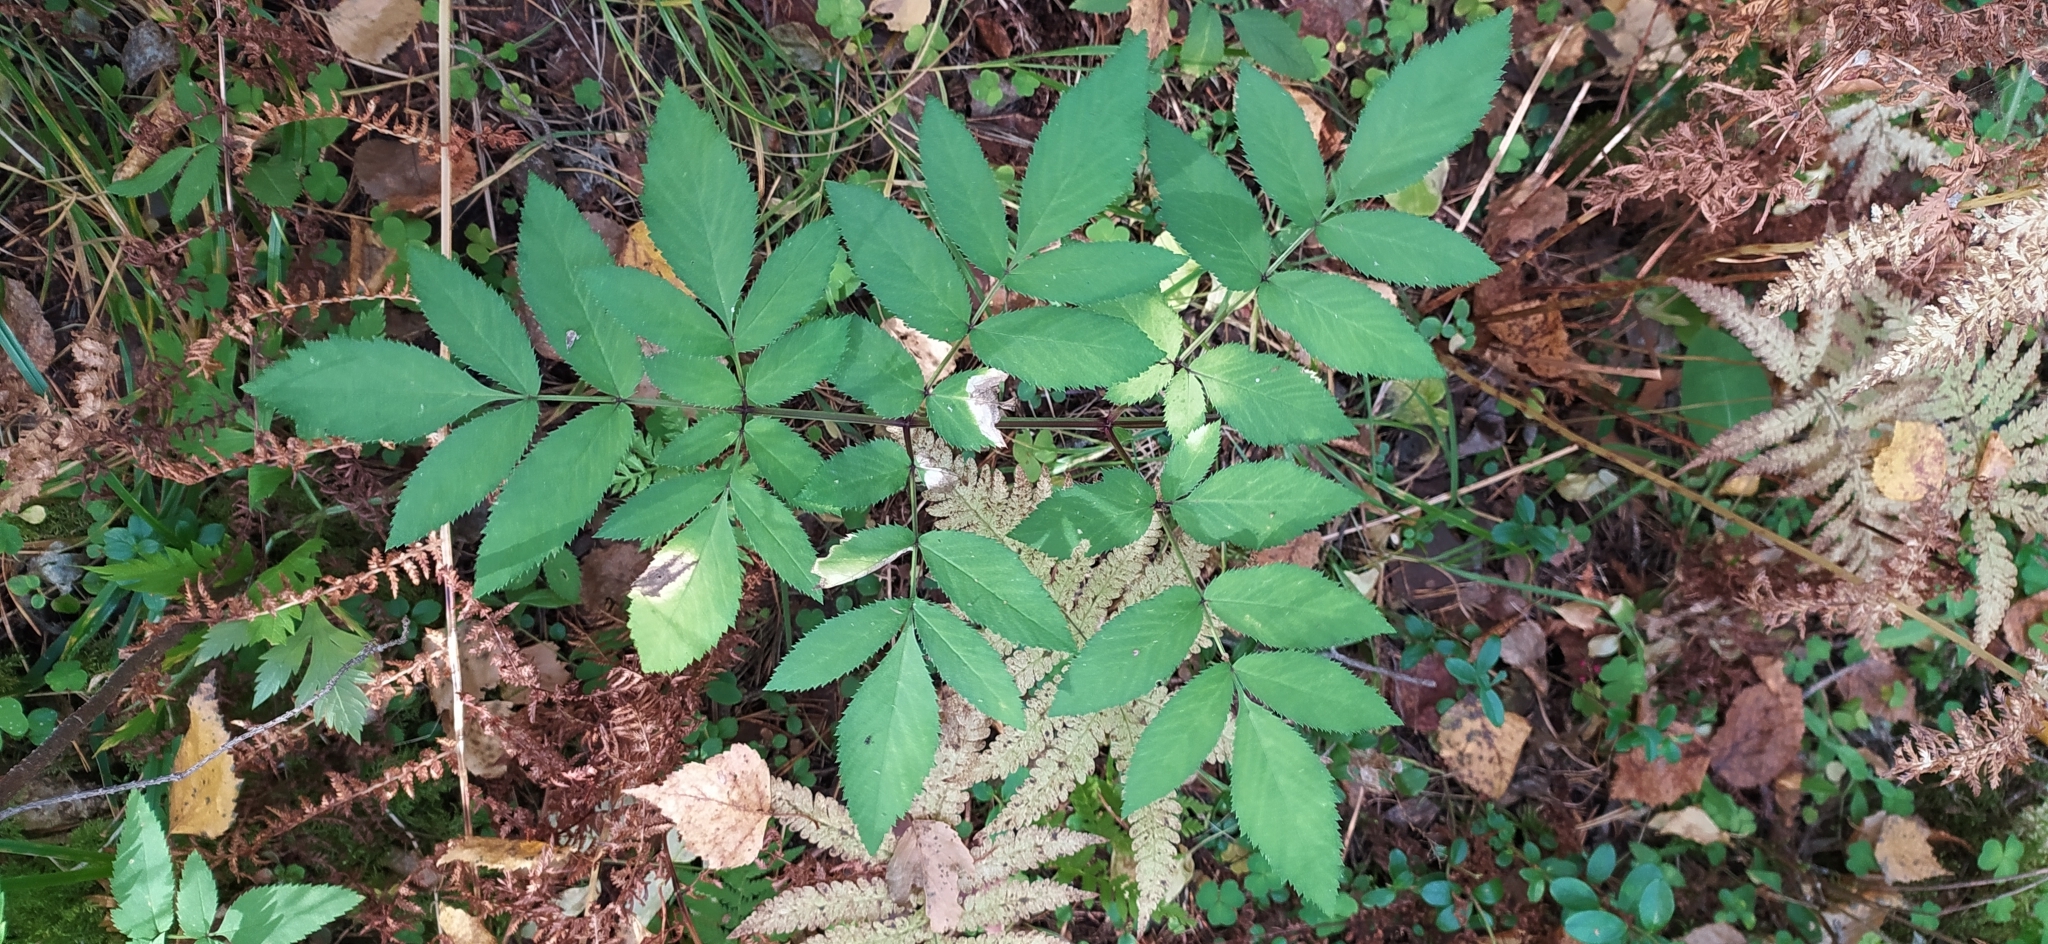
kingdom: Plantae
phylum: Tracheophyta
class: Magnoliopsida
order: Apiales
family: Apiaceae
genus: Angelica
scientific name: Angelica sylvestris
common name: Wild angelica
